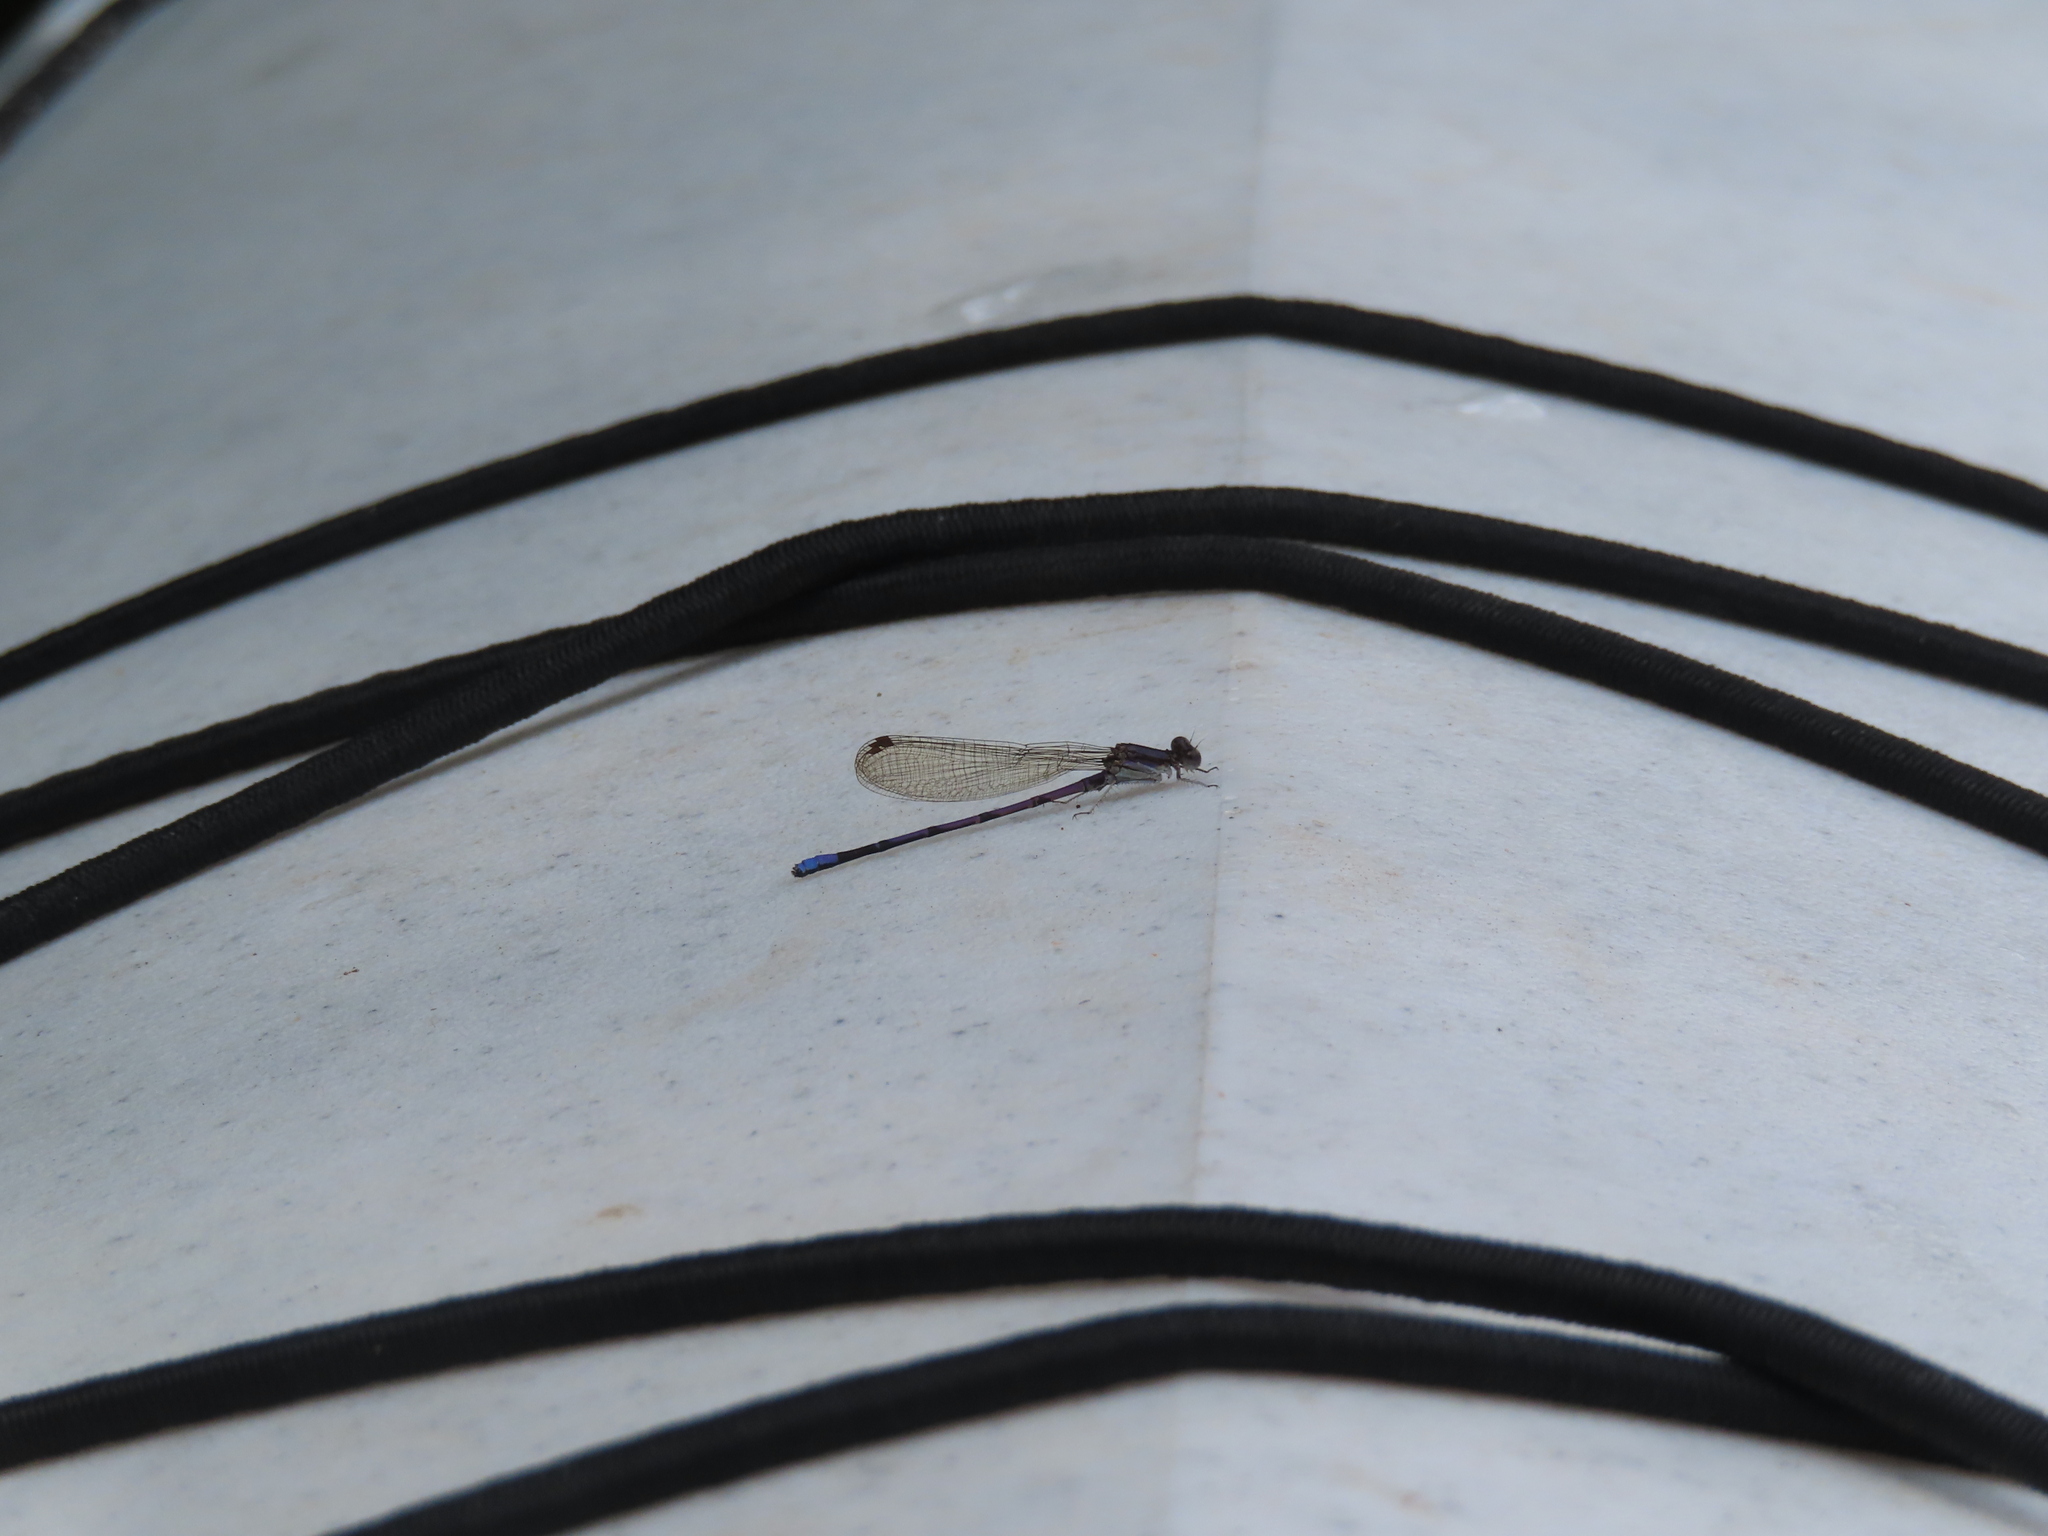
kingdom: Animalia
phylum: Arthropoda
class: Insecta
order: Odonata
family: Coenagrionidae
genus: Argia
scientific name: Argia fumipennis
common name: Variable dancer
